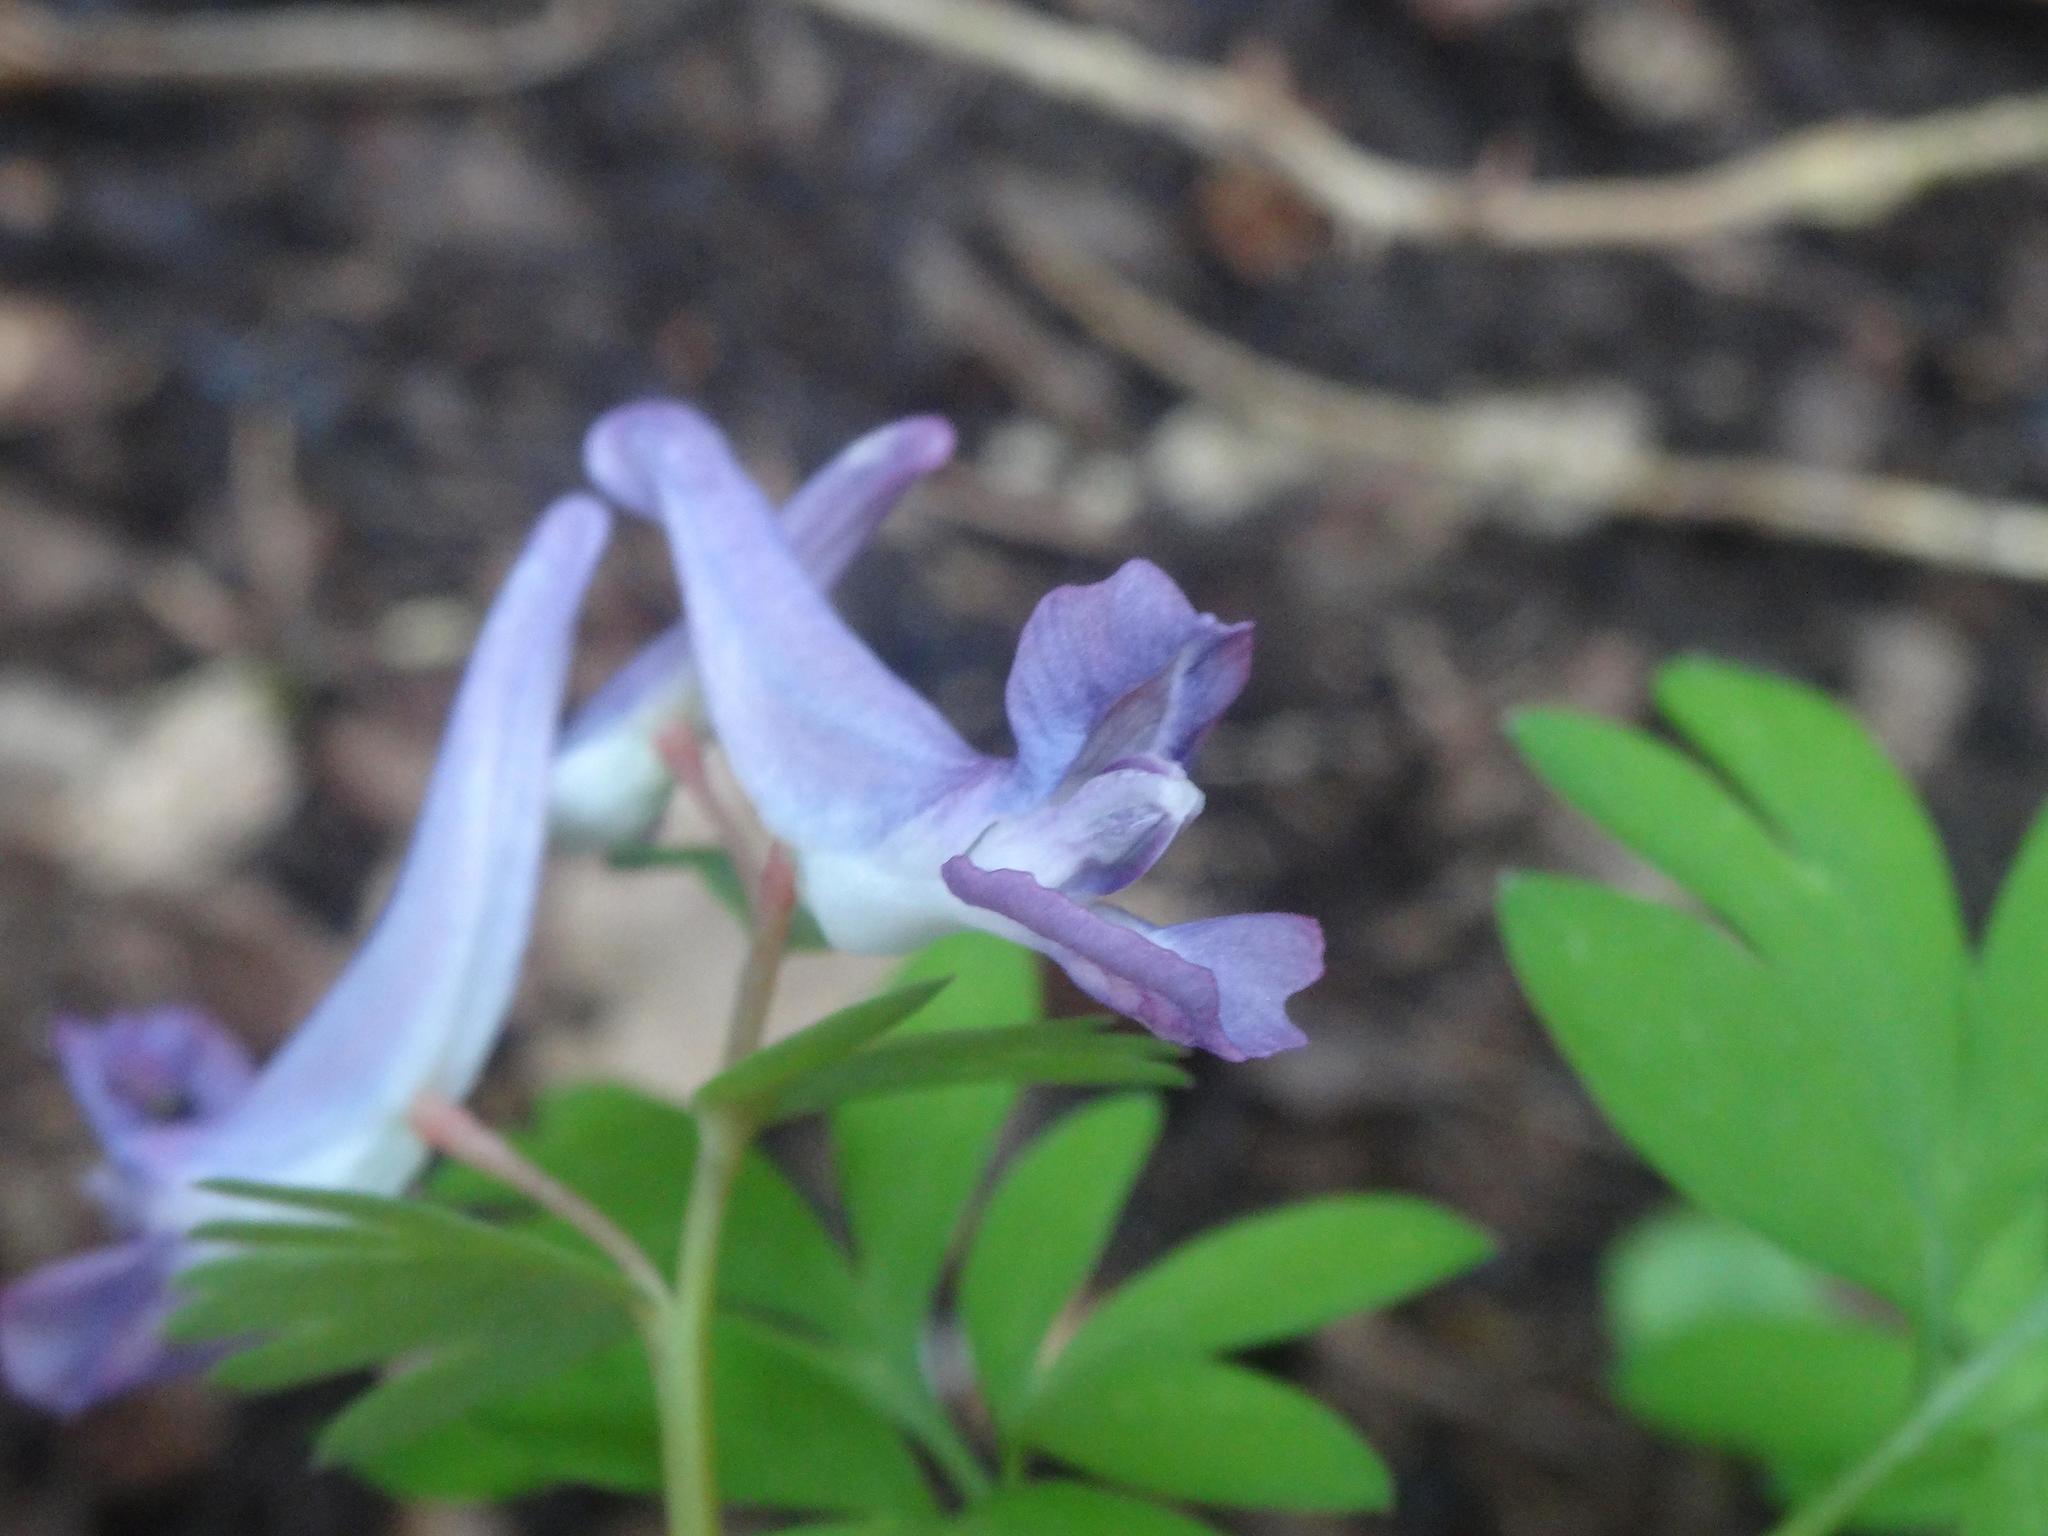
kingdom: Plantae
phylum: Tracheophyta
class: Magnoliopsida
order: Ranunculales
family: Papaveraceae
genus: Corydalis
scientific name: Corydalis solida
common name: Bird-in-a-bush
